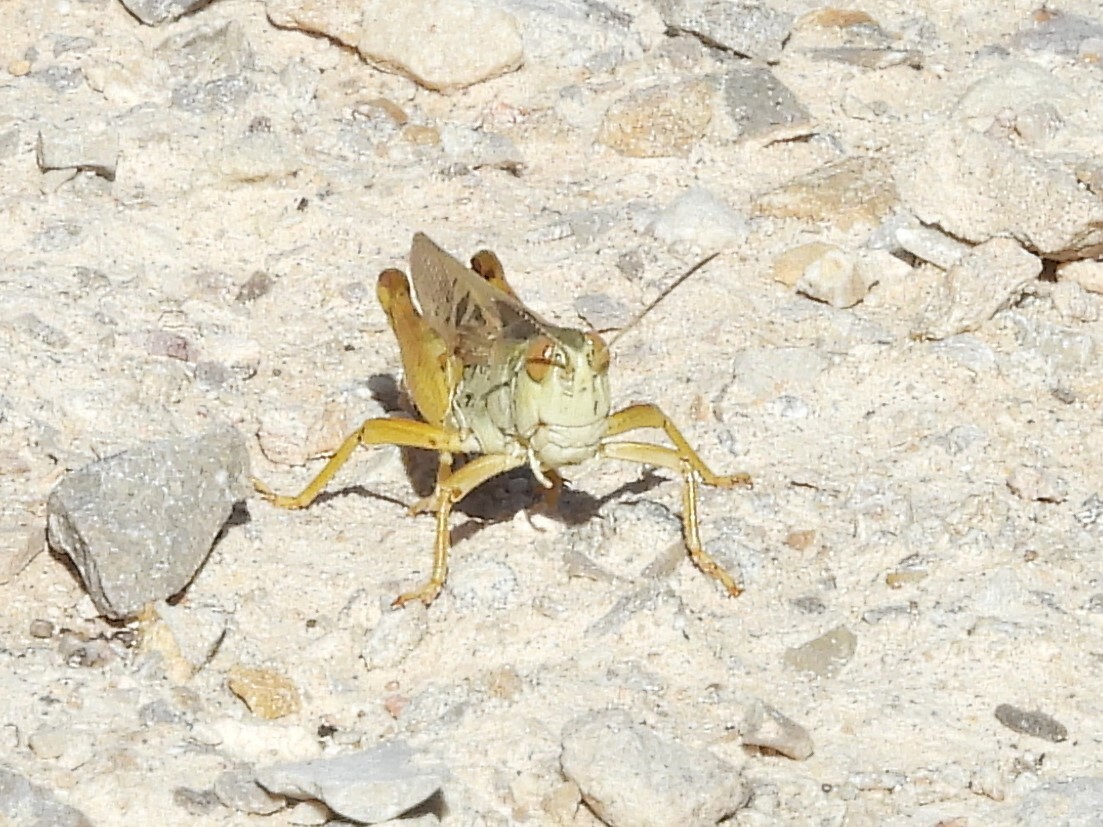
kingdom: Animalia
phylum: Arthropoda
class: Insecta
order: Orthoptera
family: Acrididae
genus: Camnula
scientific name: Camnula pellucida
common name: Clear-winged grasshopper
